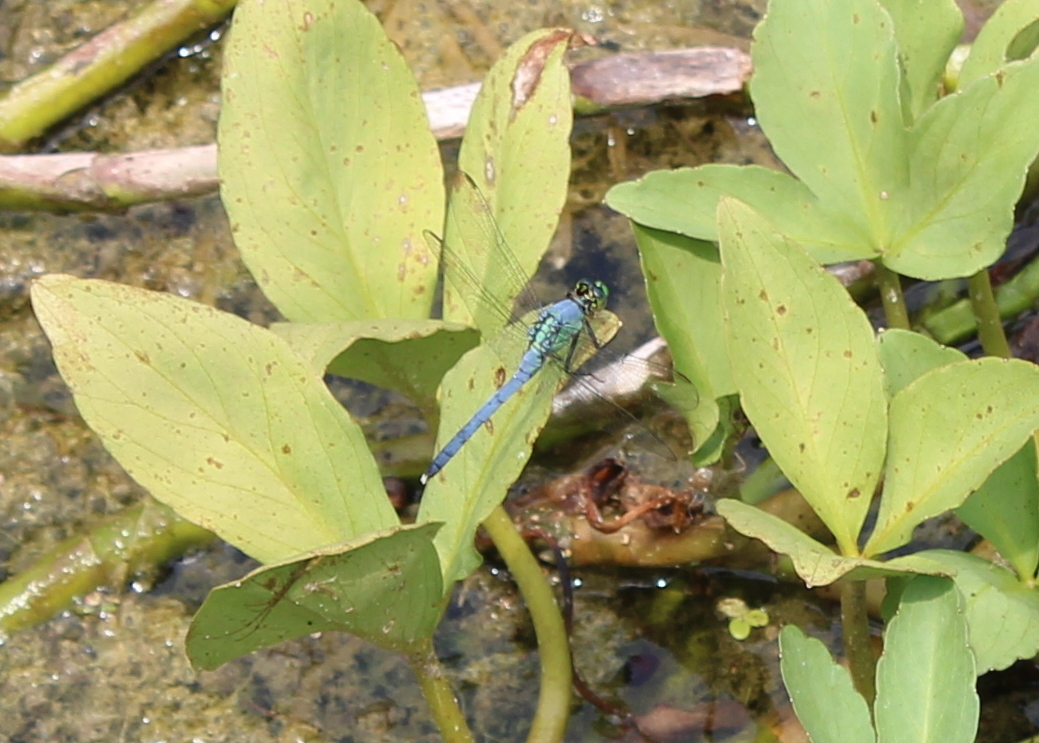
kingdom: Animalia
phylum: Arthropoda
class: Insecta
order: Odonata
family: Libellulidae
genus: Erythemis
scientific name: Erythemis simplicicollis
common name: Eastern pondhawk
